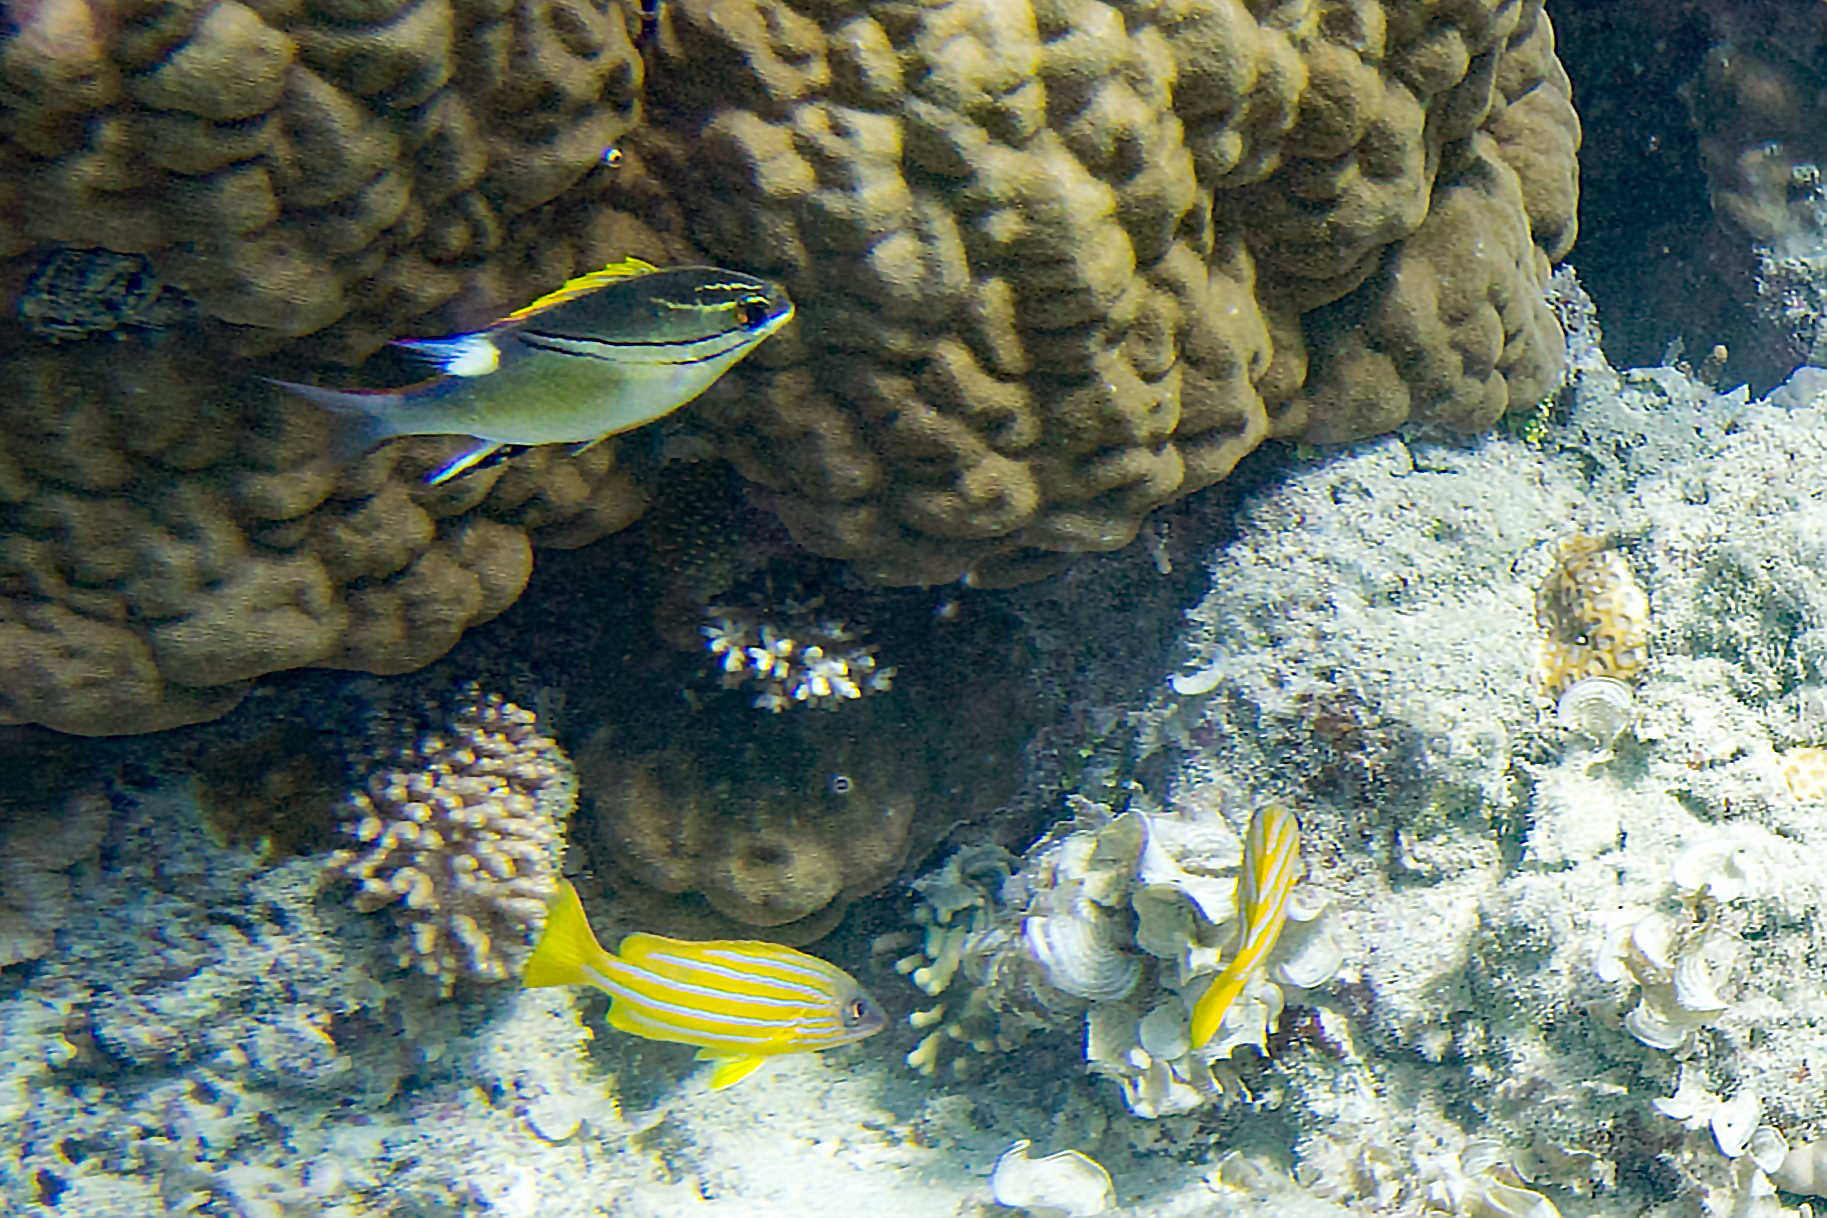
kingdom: Animalia
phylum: Chordata
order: Perciformes
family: Lutjanidae
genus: Lutjanus
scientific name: Lutjanus quinquelineatus
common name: Five-lined snapper
